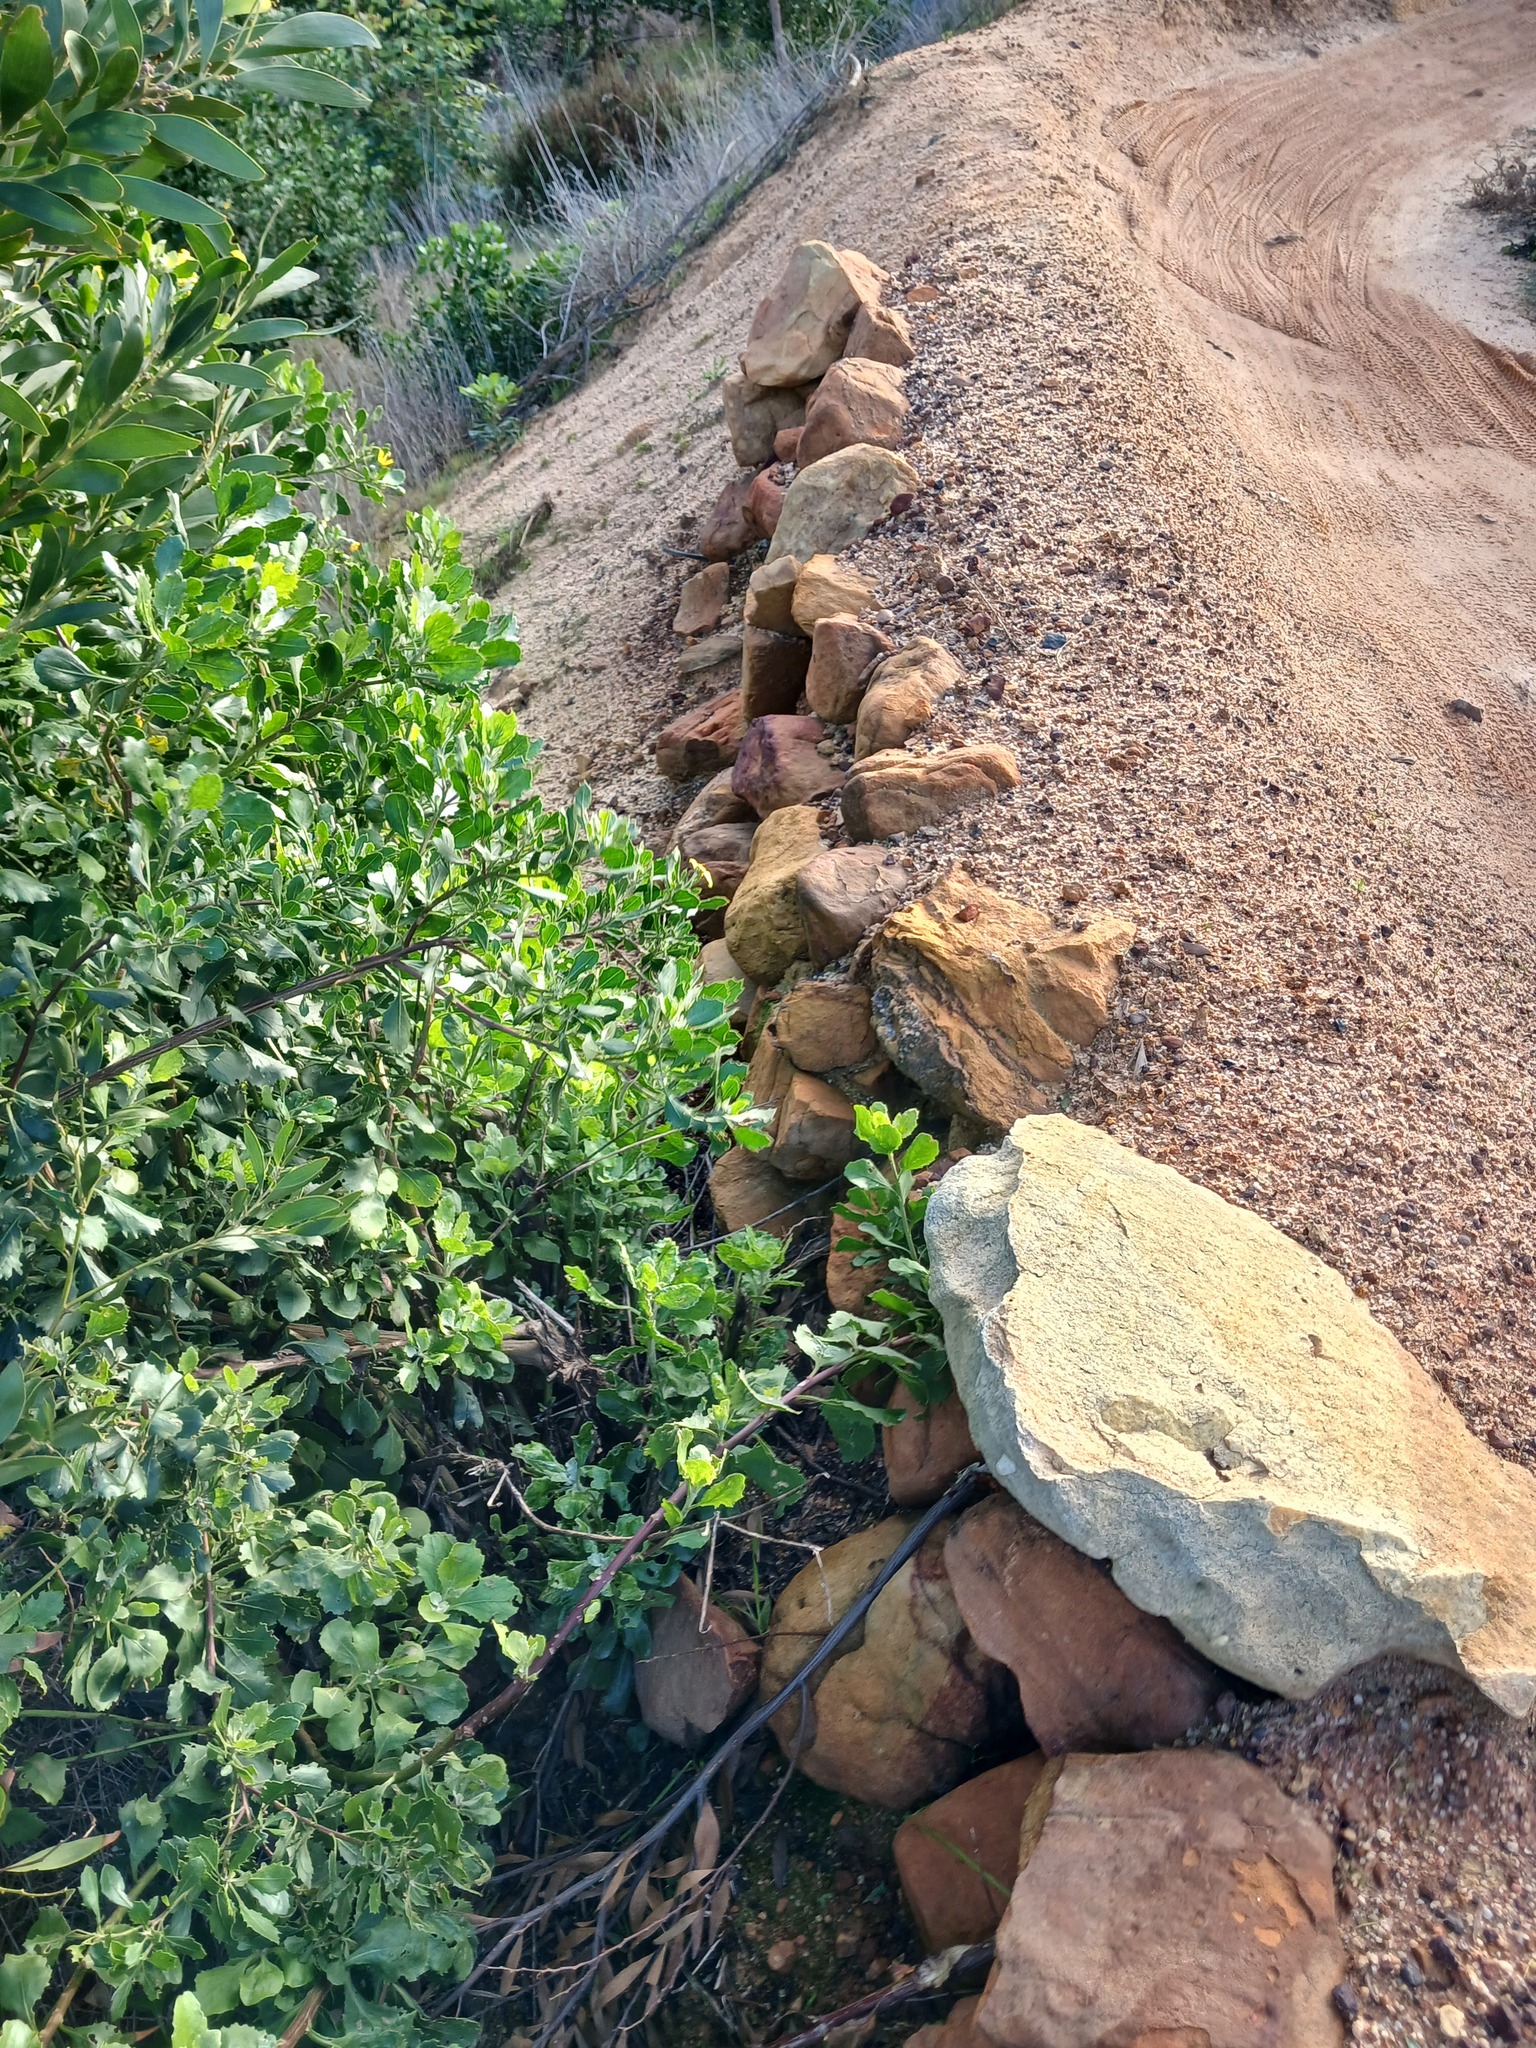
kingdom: Plantae
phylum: Tracheophyta
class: Magnoliopsida
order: Asterales
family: Asteraceae
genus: Osteospermum
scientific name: Osteospermum moniliferum
